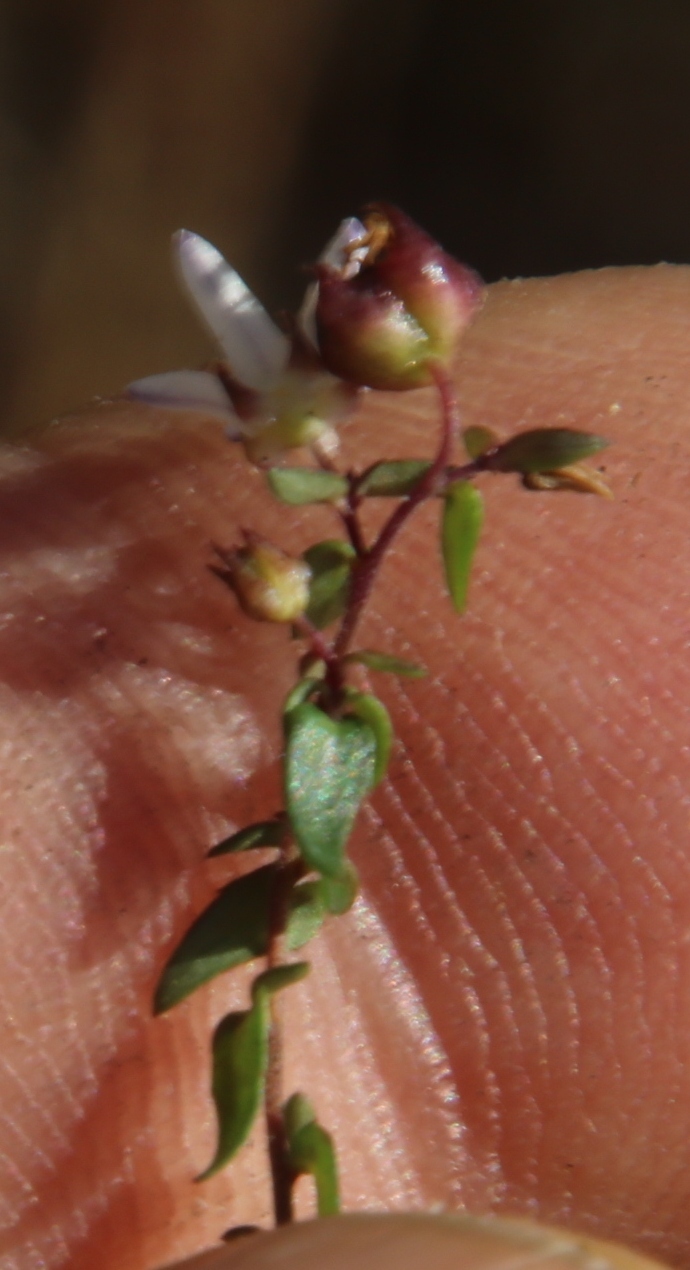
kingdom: Plantae
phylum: Tracheophyta
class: Magnoliopsida
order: Asterales
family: Campanulaceae
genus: Wahlenbergia
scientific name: Wahlenbergia parvifolia
